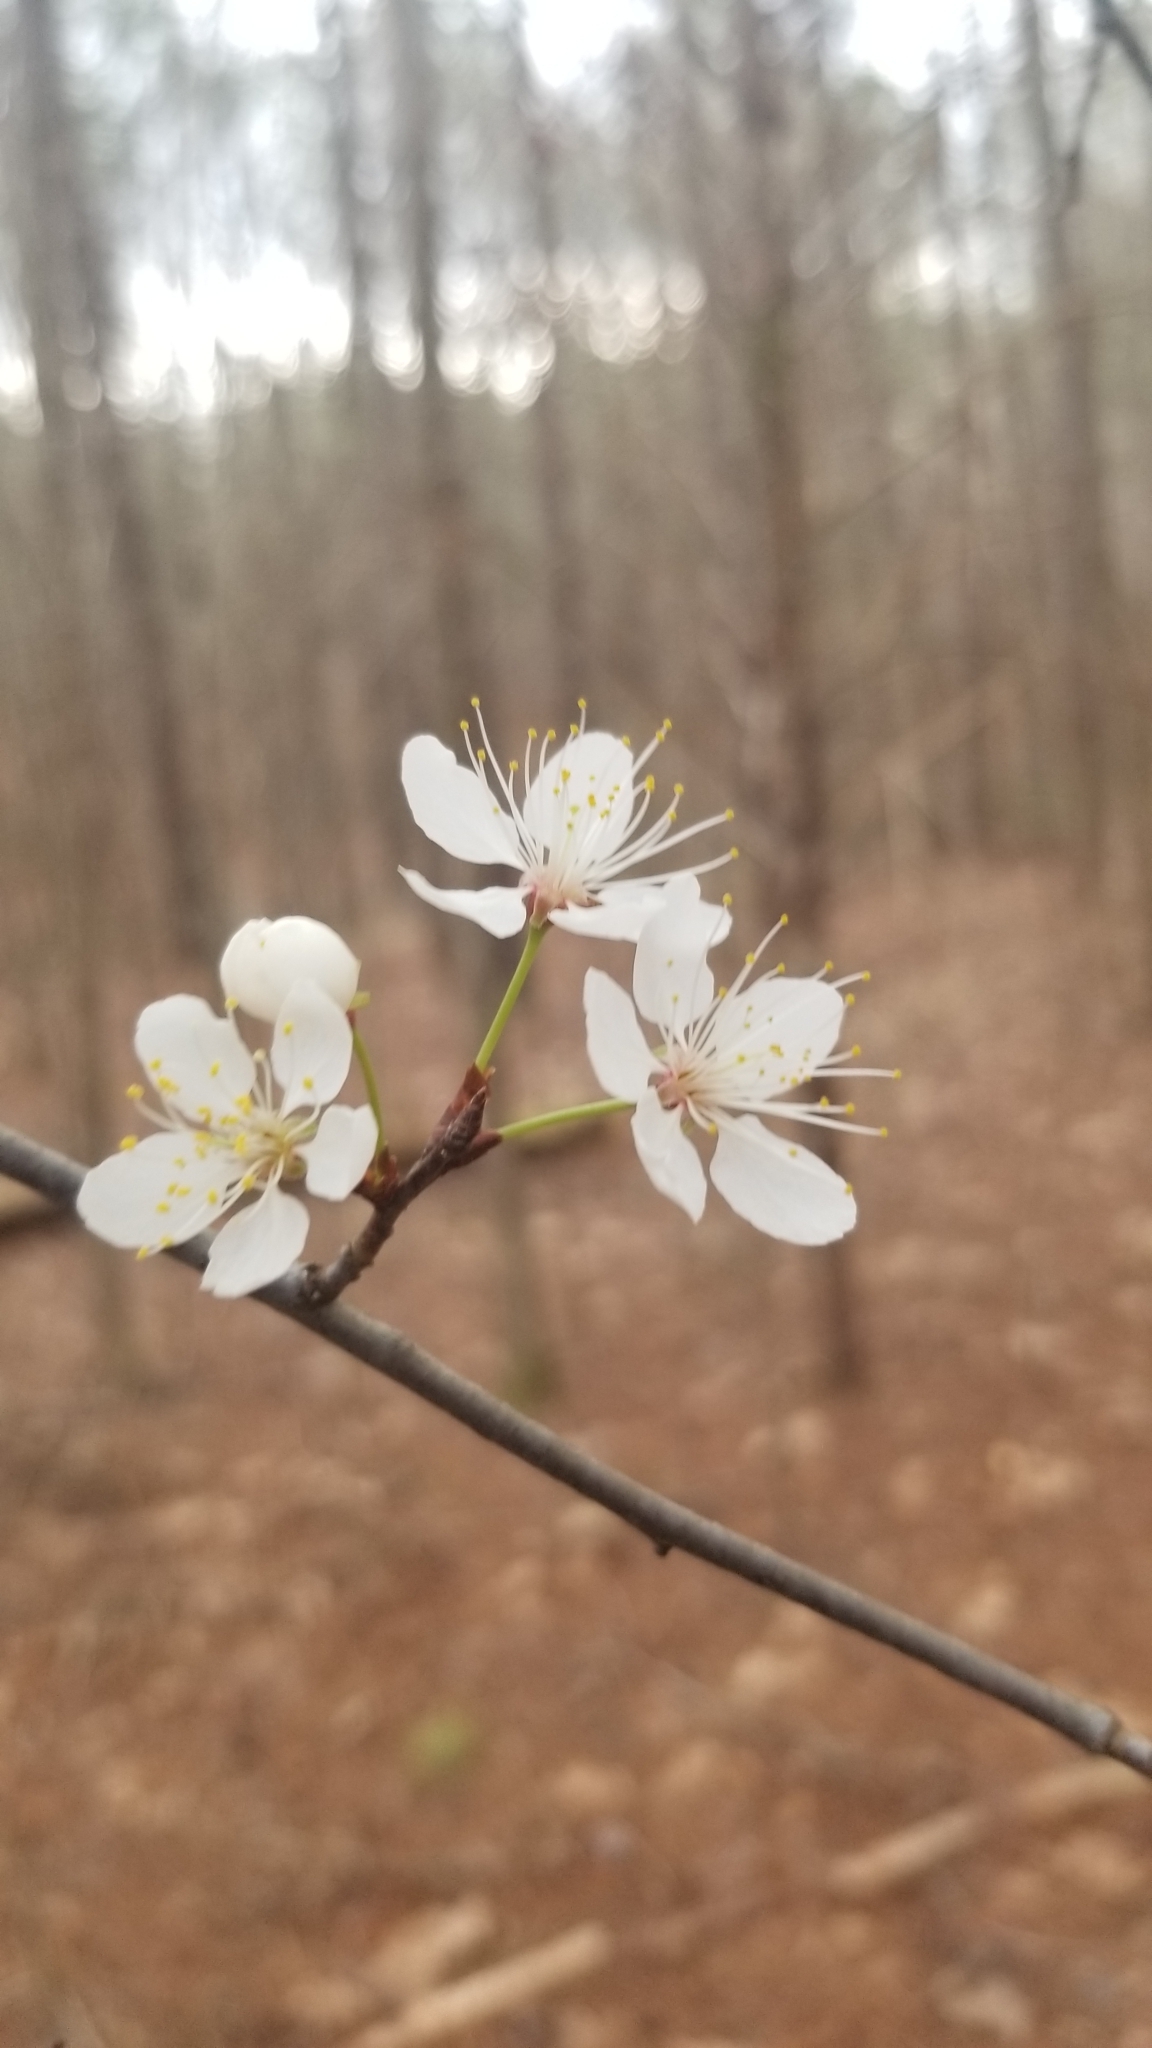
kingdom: Plantae
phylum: Tracheophyta
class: Magnoliopsida
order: Rosales
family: Rosaceae
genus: Prunus
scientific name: Prunus mexicana
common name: Mexican plum
